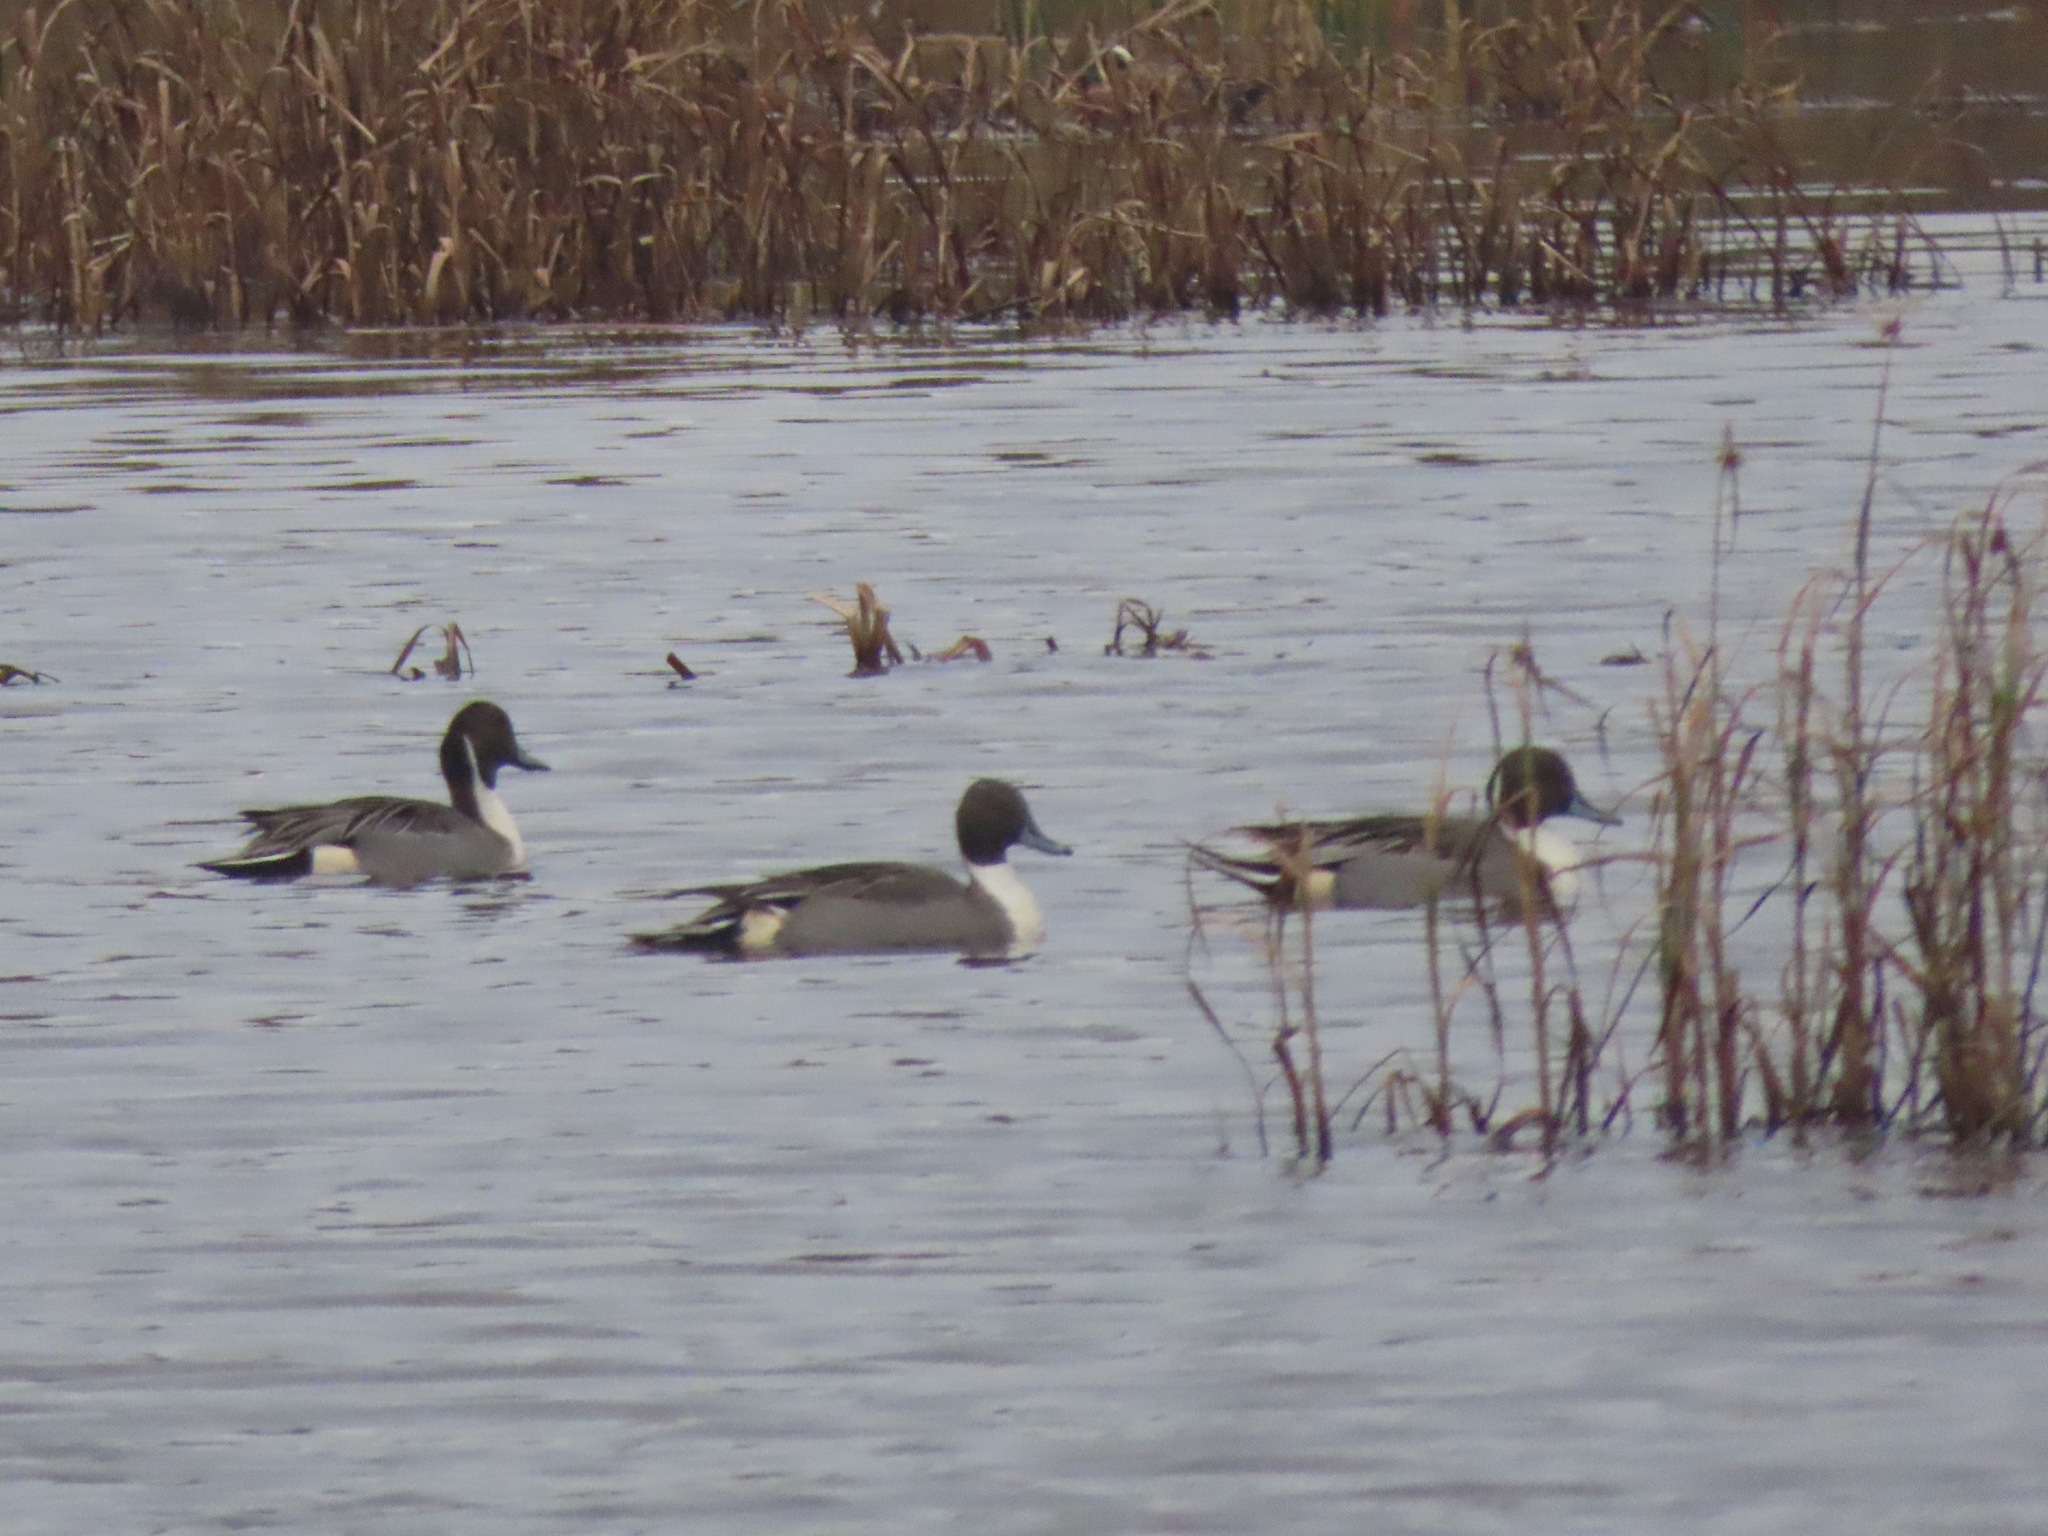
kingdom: Animalia
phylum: Chordata
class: Aves
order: Anseriformes
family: Anatidae
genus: Anas
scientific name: Anas acuta
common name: Northern pintail
